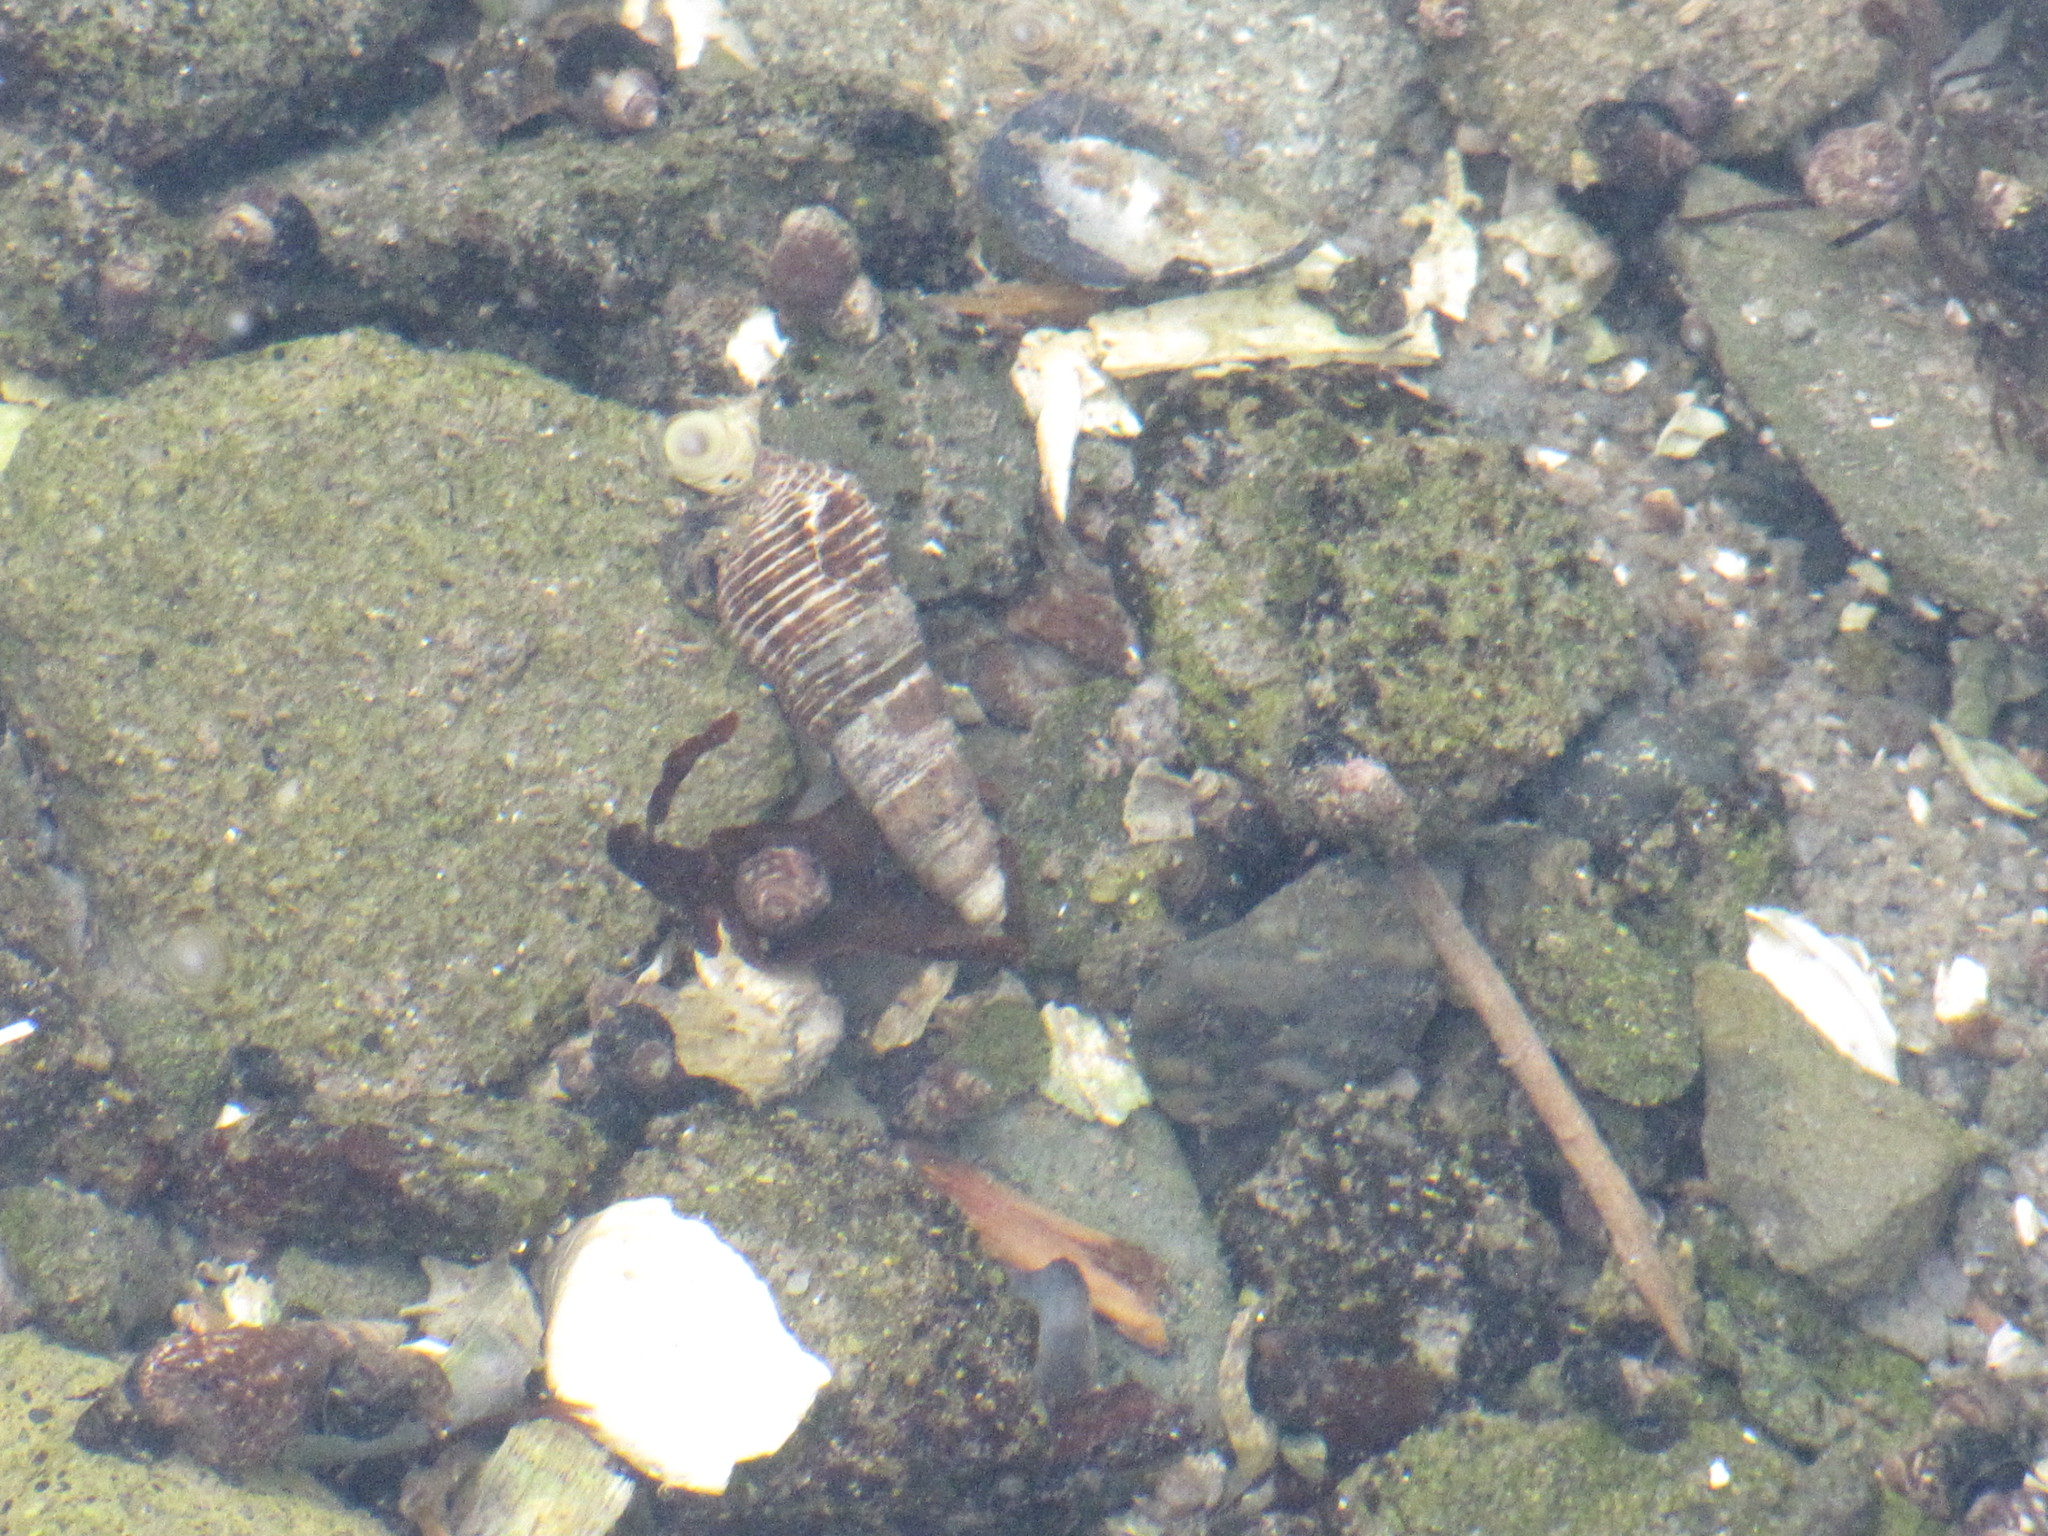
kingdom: Animalia
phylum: Mollusca
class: Gastropoda
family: Batillariidae
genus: Batillaria
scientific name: Batillaria attramentaria
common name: Japanese false cerith
